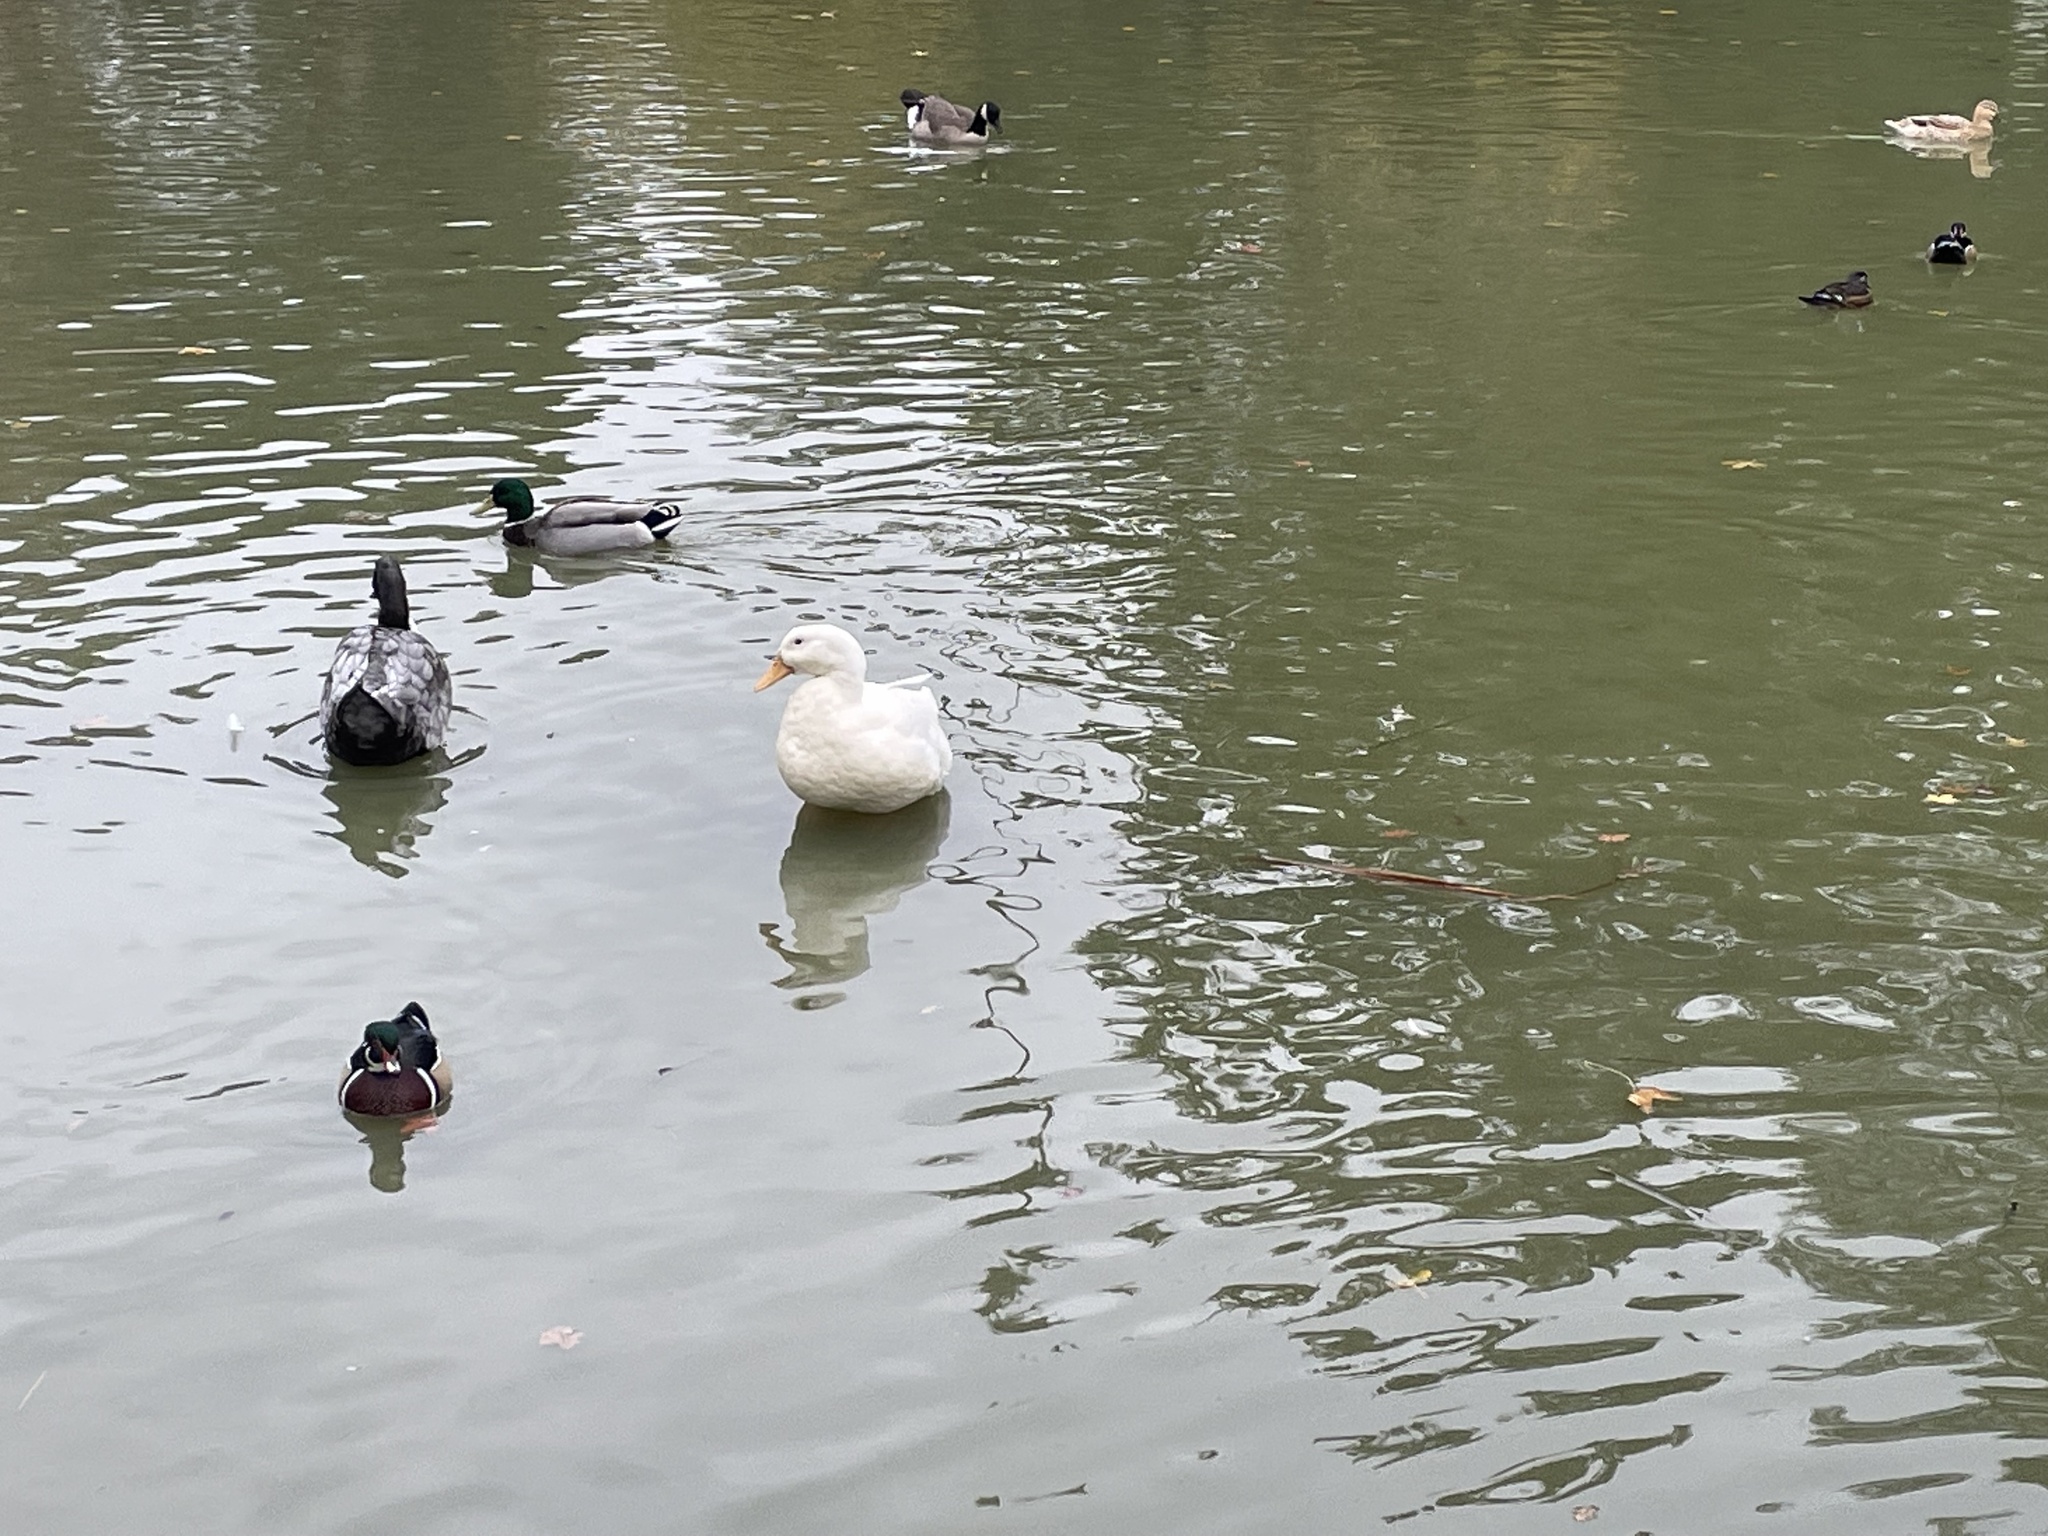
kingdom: Animalia
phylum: Chordata
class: Aves
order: Anseriformes
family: Anatidae
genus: Anas
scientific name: Anas platyrhynchos
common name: Mallard
